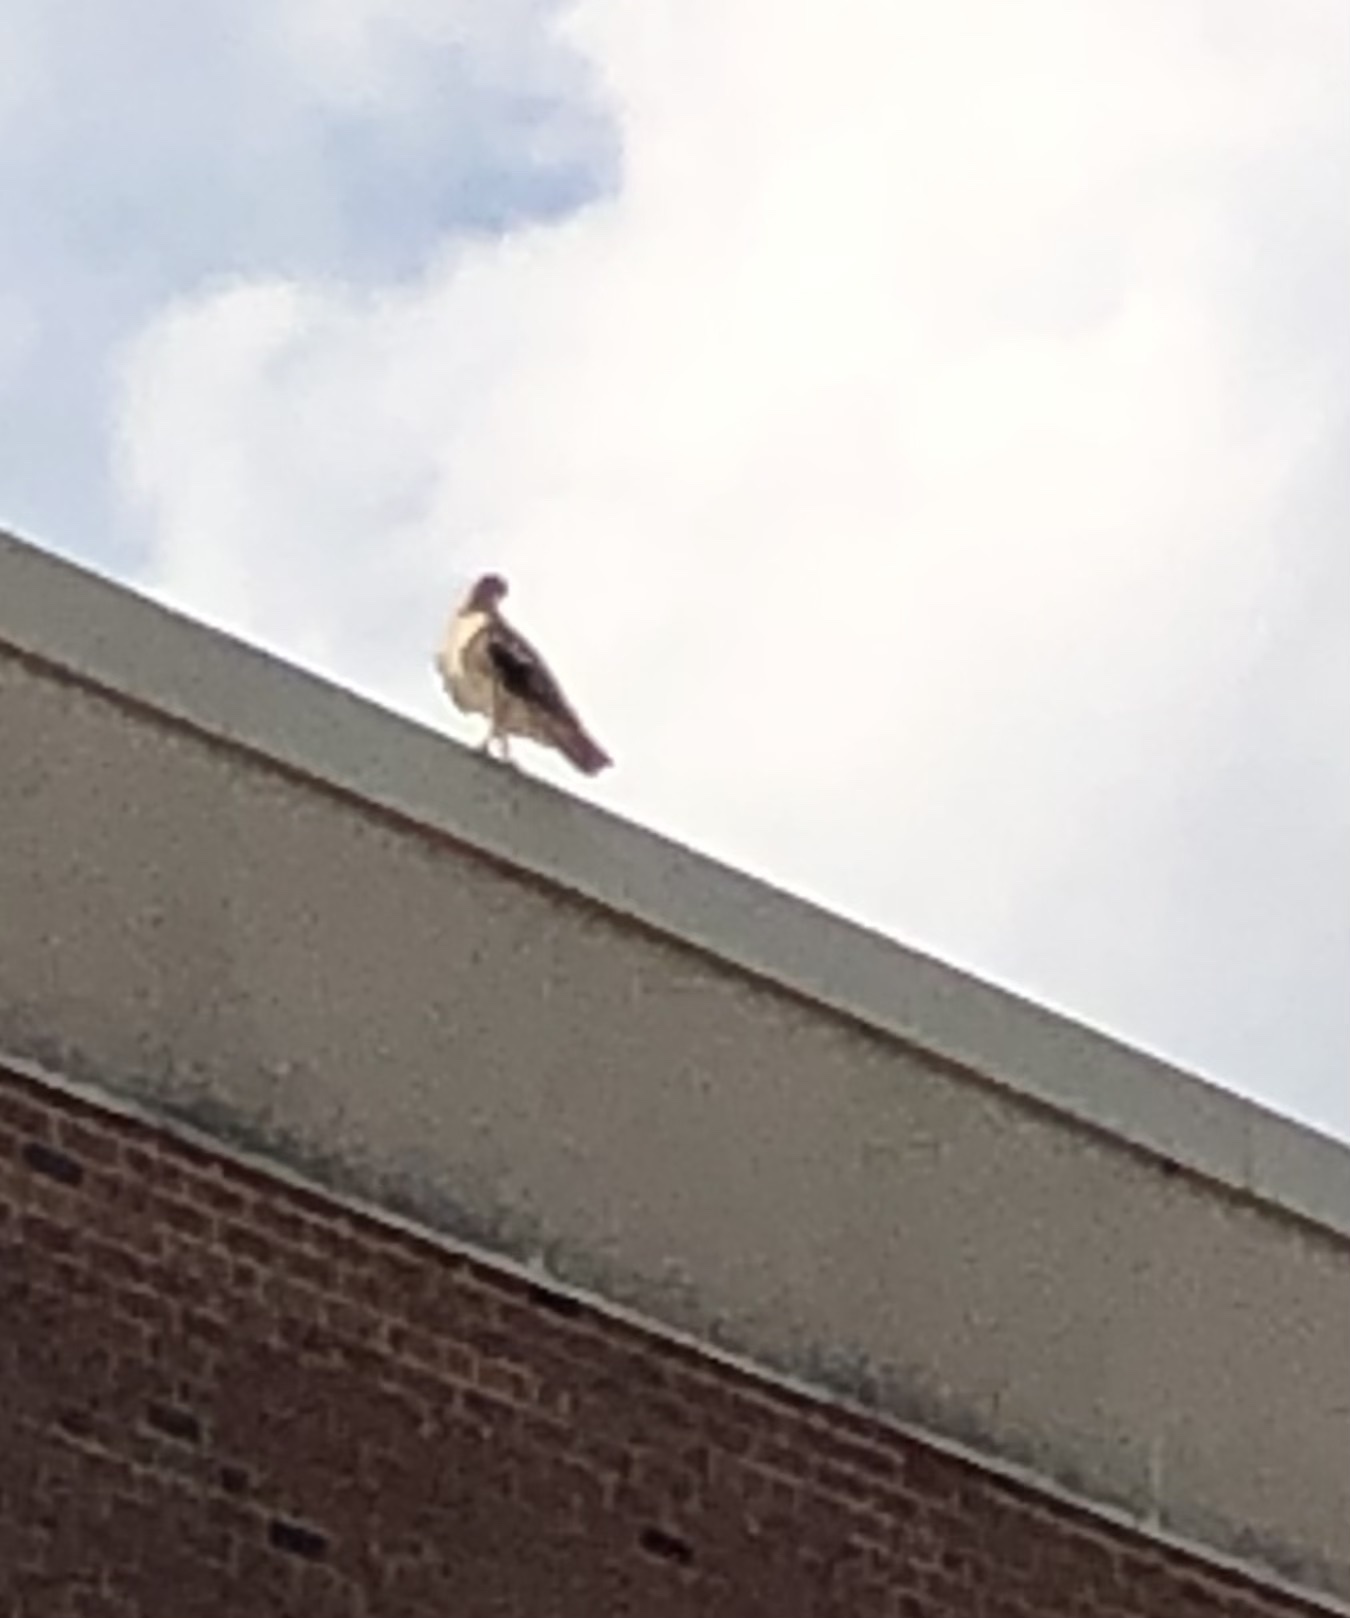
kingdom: Animalia
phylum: Chordata
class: Aves
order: Accipitriformes
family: Accipitridae
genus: Buteo
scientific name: Buteo jamaicensis
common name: Red-tailed hawk
